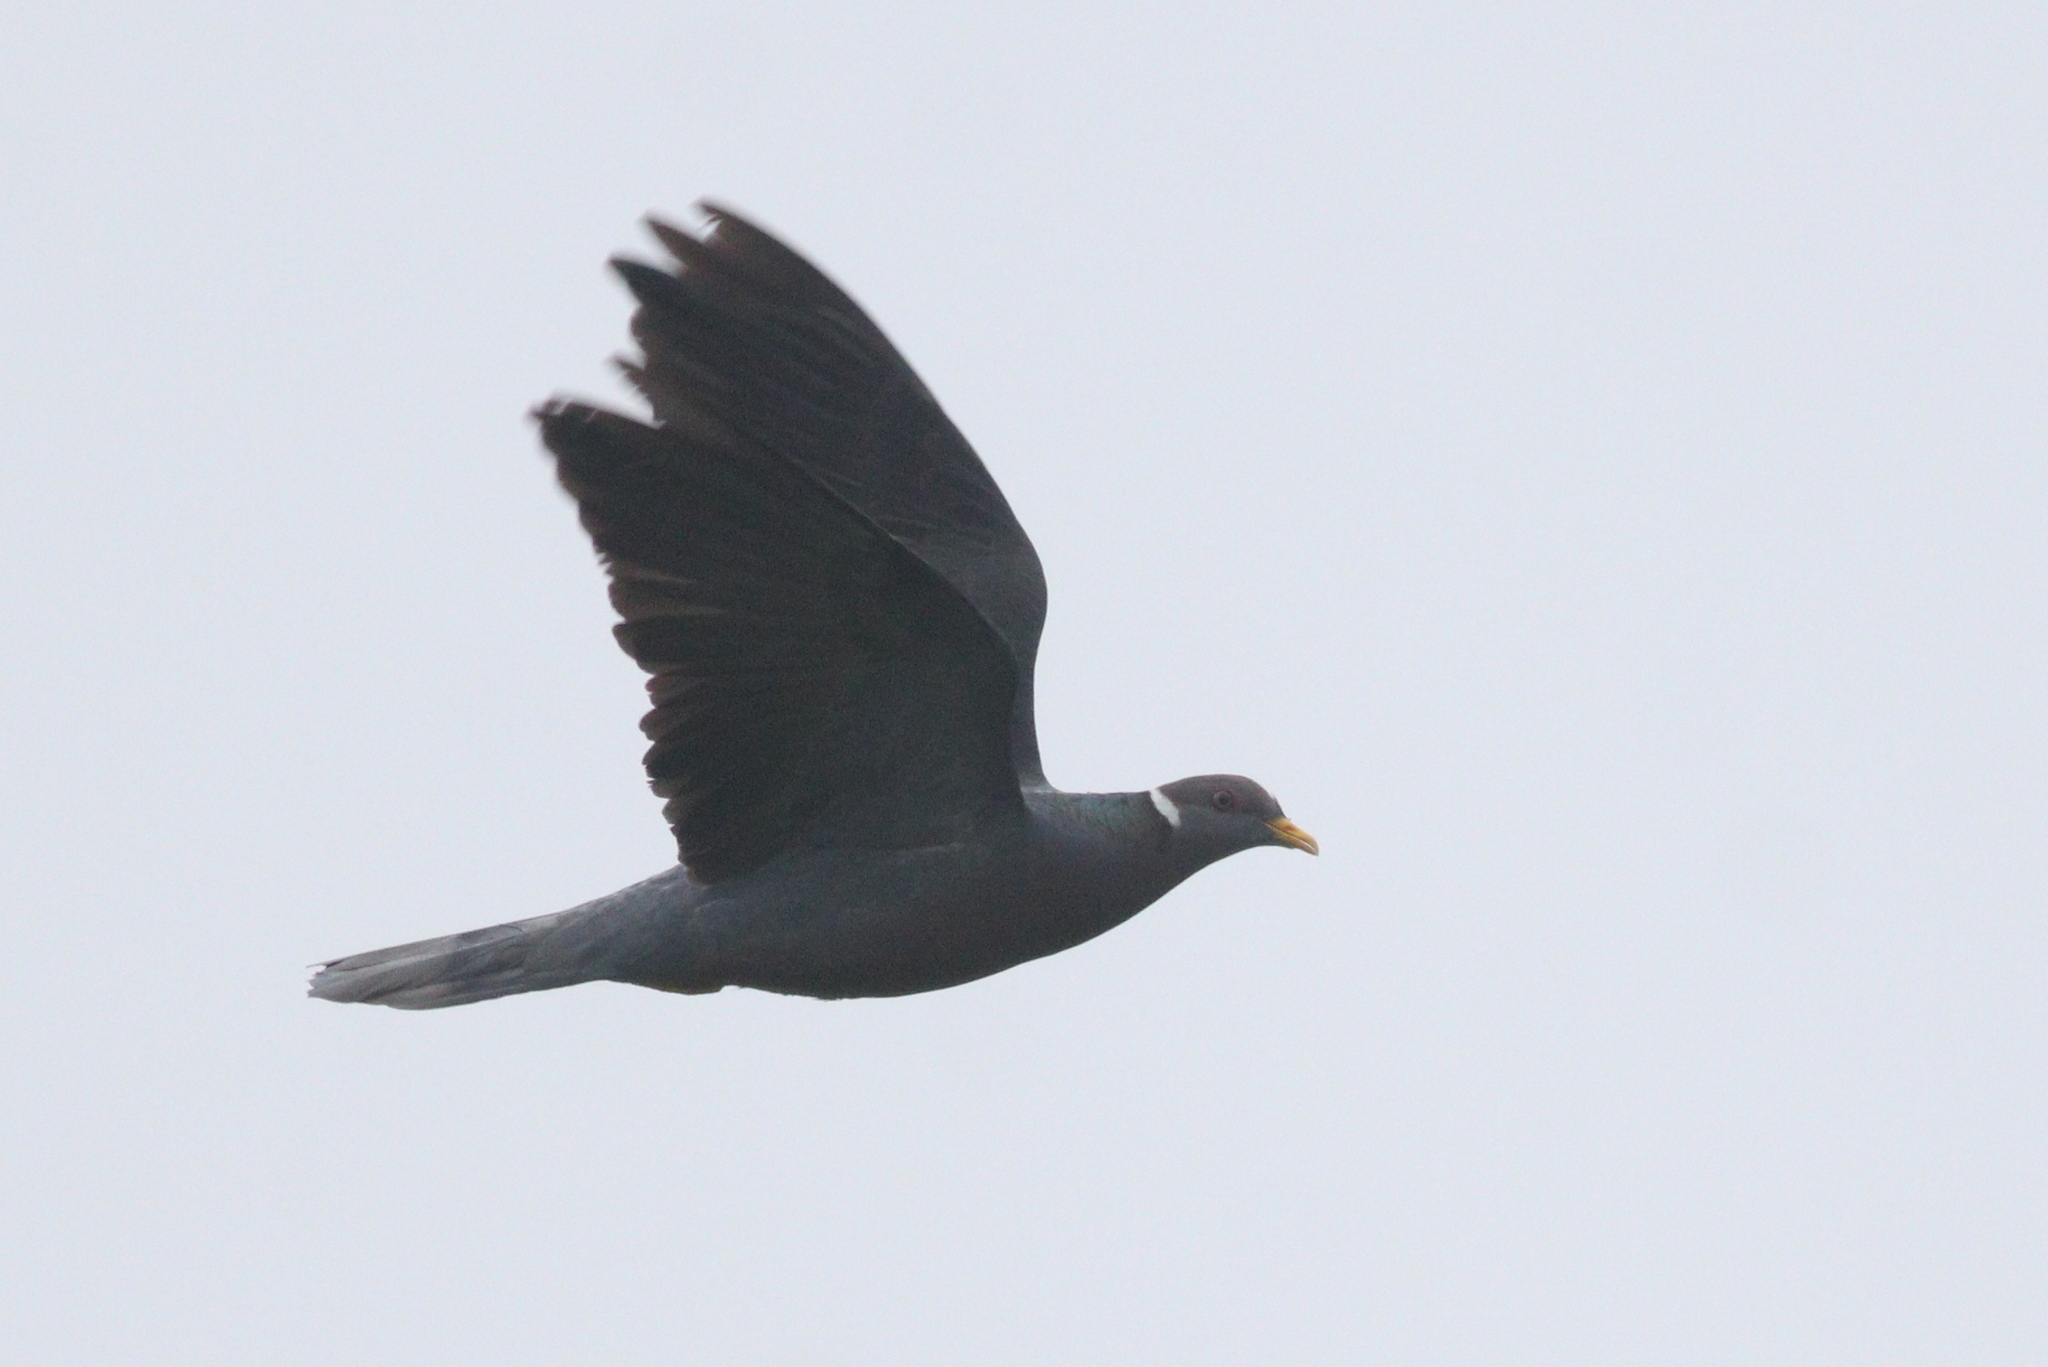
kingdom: Animalia
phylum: Chordata
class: Aves
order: Columbiformes
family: Columbidae
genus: Patagioenas
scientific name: Patagioenas fasciata
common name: Band-tailed pigeon
